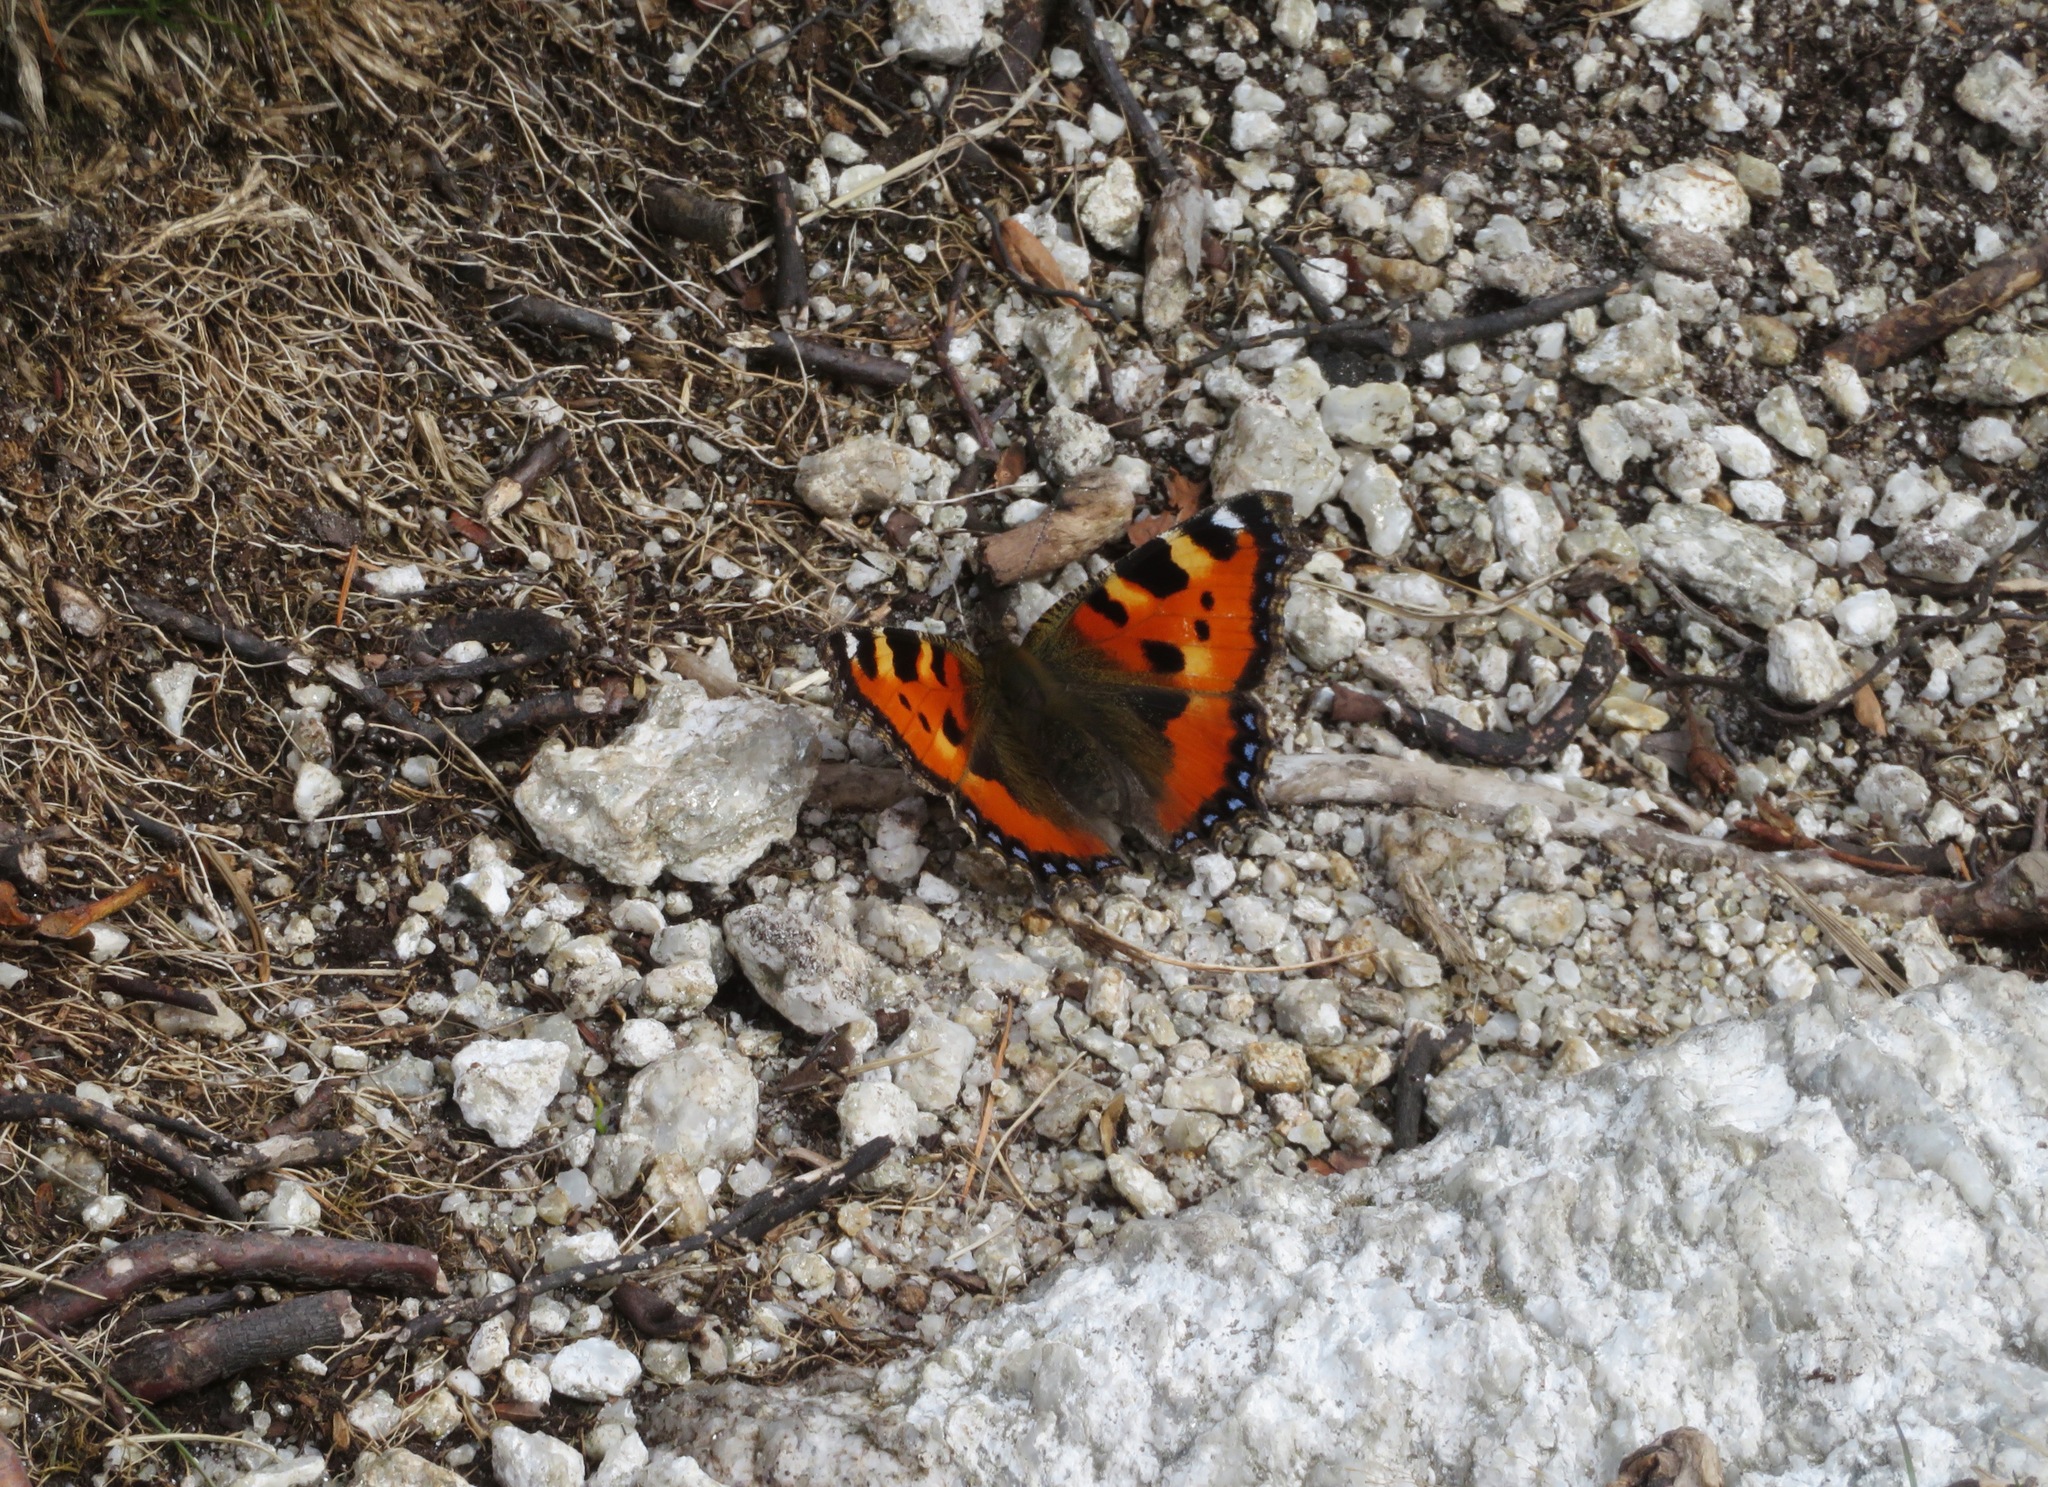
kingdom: Animalia
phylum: Arthropoda
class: Insecta
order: Lepidoptera
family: Nymphalidae
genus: Aglais
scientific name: Aglais urticae
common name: Small tortoiseshell
